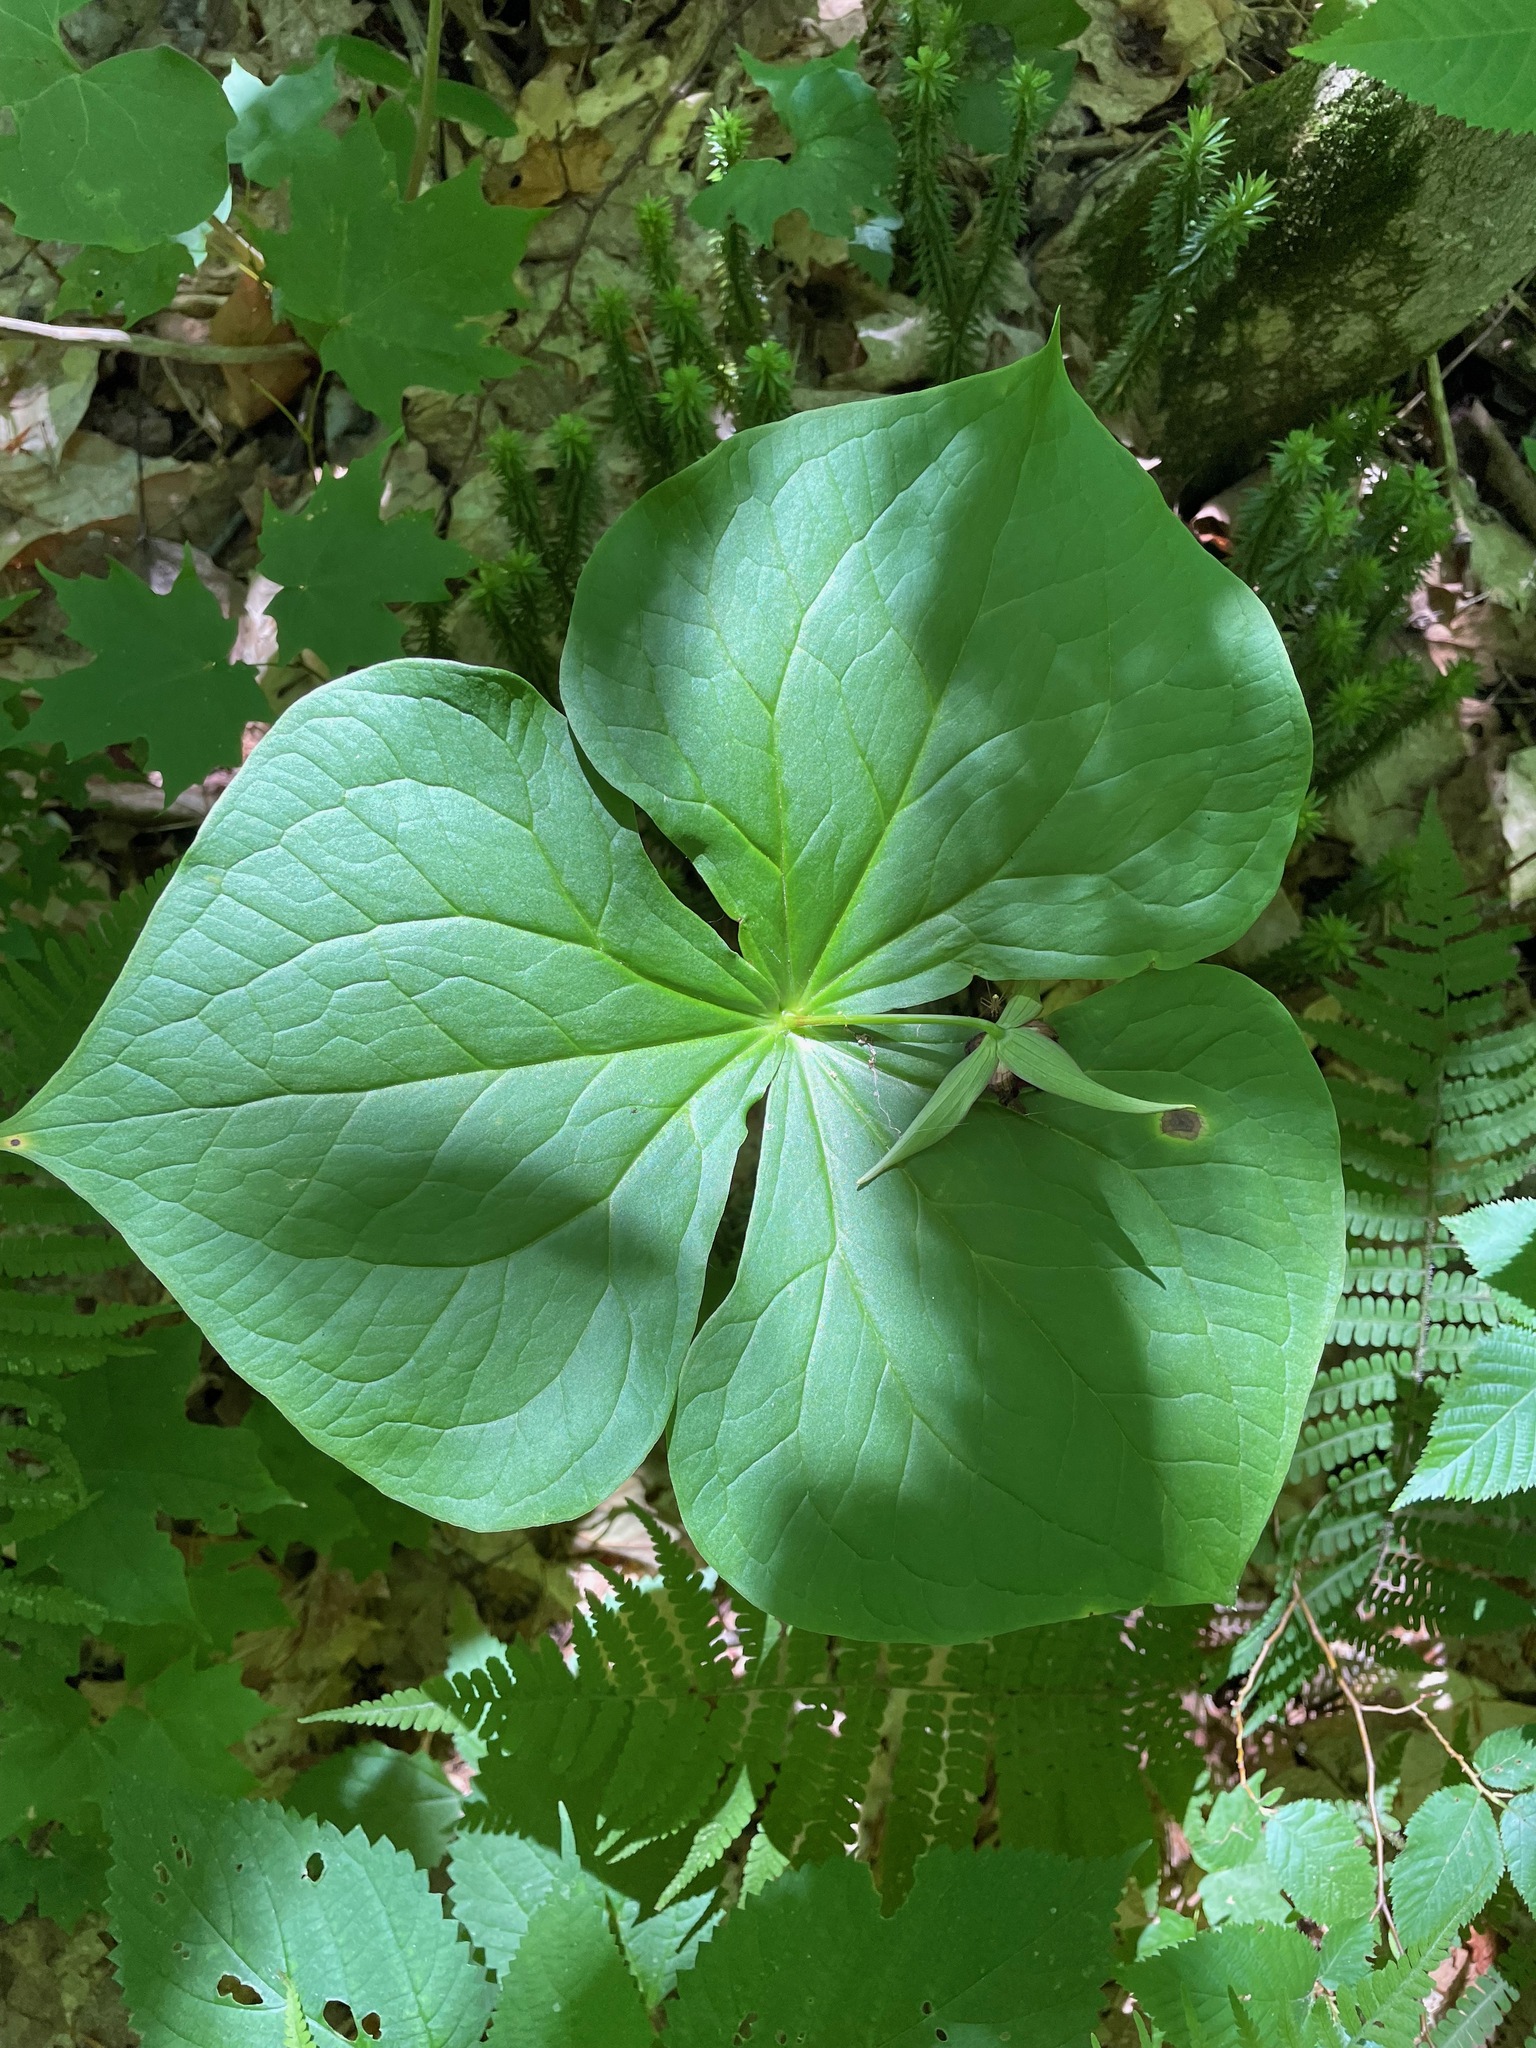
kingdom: Plantae
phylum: Tracheophyta
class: Liliopsida
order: Liliales
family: Melanthiaceae
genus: Trillium
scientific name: Trillium erectum
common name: Purple trillium
